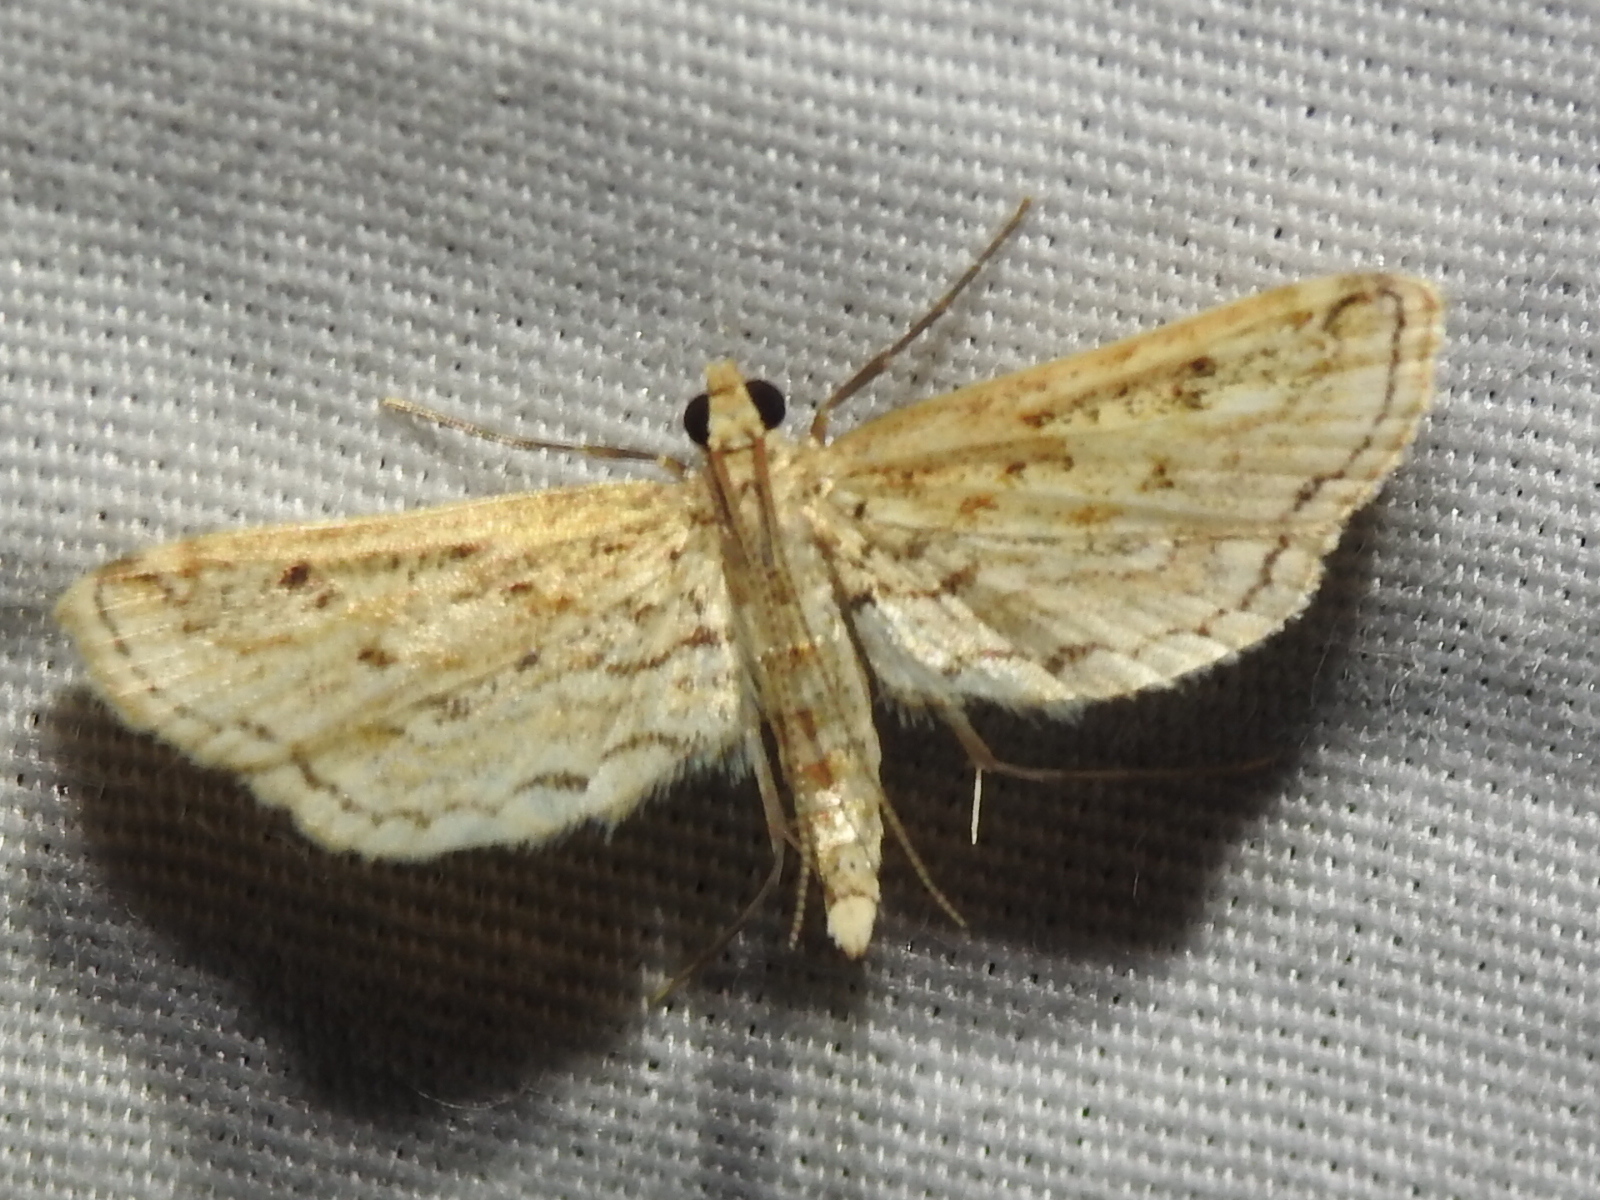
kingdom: Animalia
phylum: Arthropoda
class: Insecta
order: Lepidoptera
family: Crambidae
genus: Parapoynx
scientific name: Parapoynx allionealis
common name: Bladderwort casemaker
